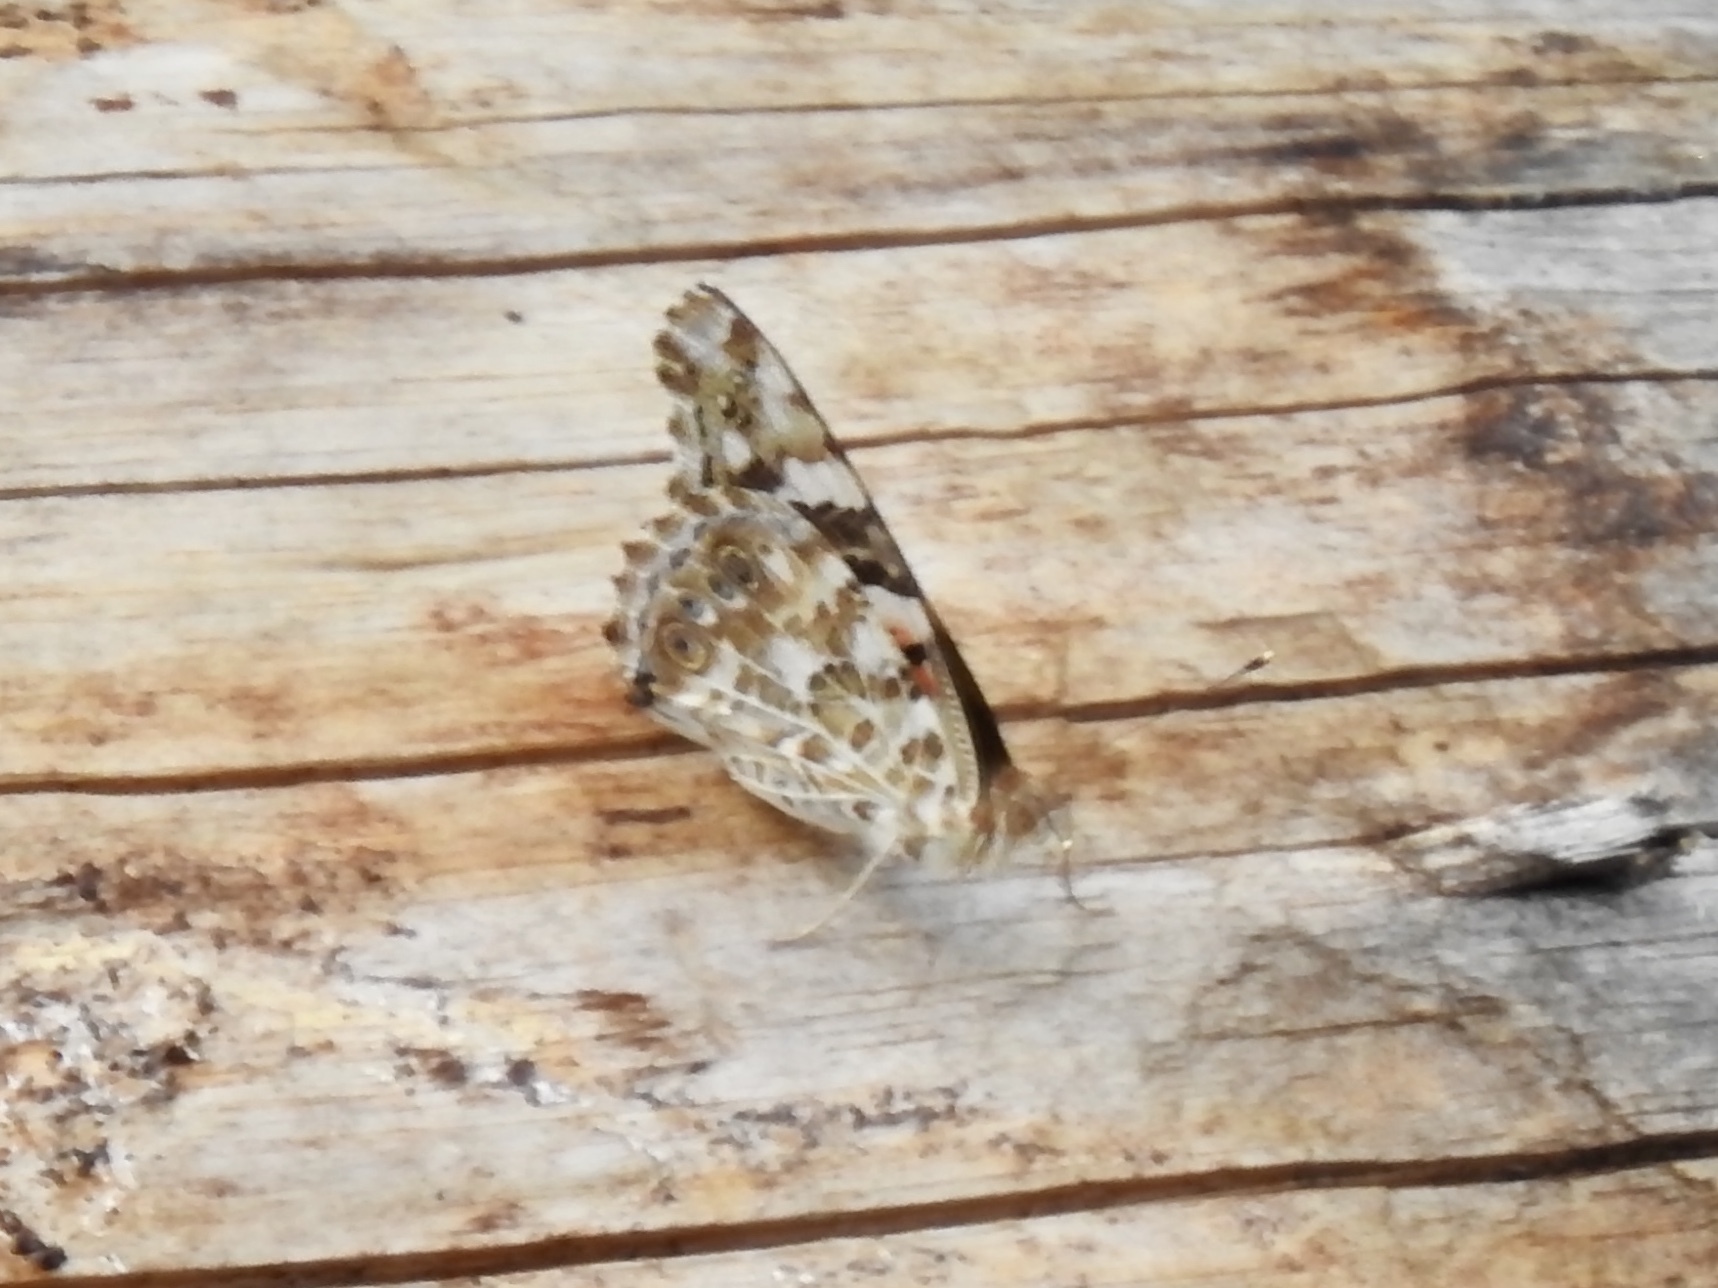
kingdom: Animalia
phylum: Arthropoda
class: Insecta
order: Lepidoptera
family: Nymphalidae
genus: Vanessa
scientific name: Vanessa cardui
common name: Painted lady
